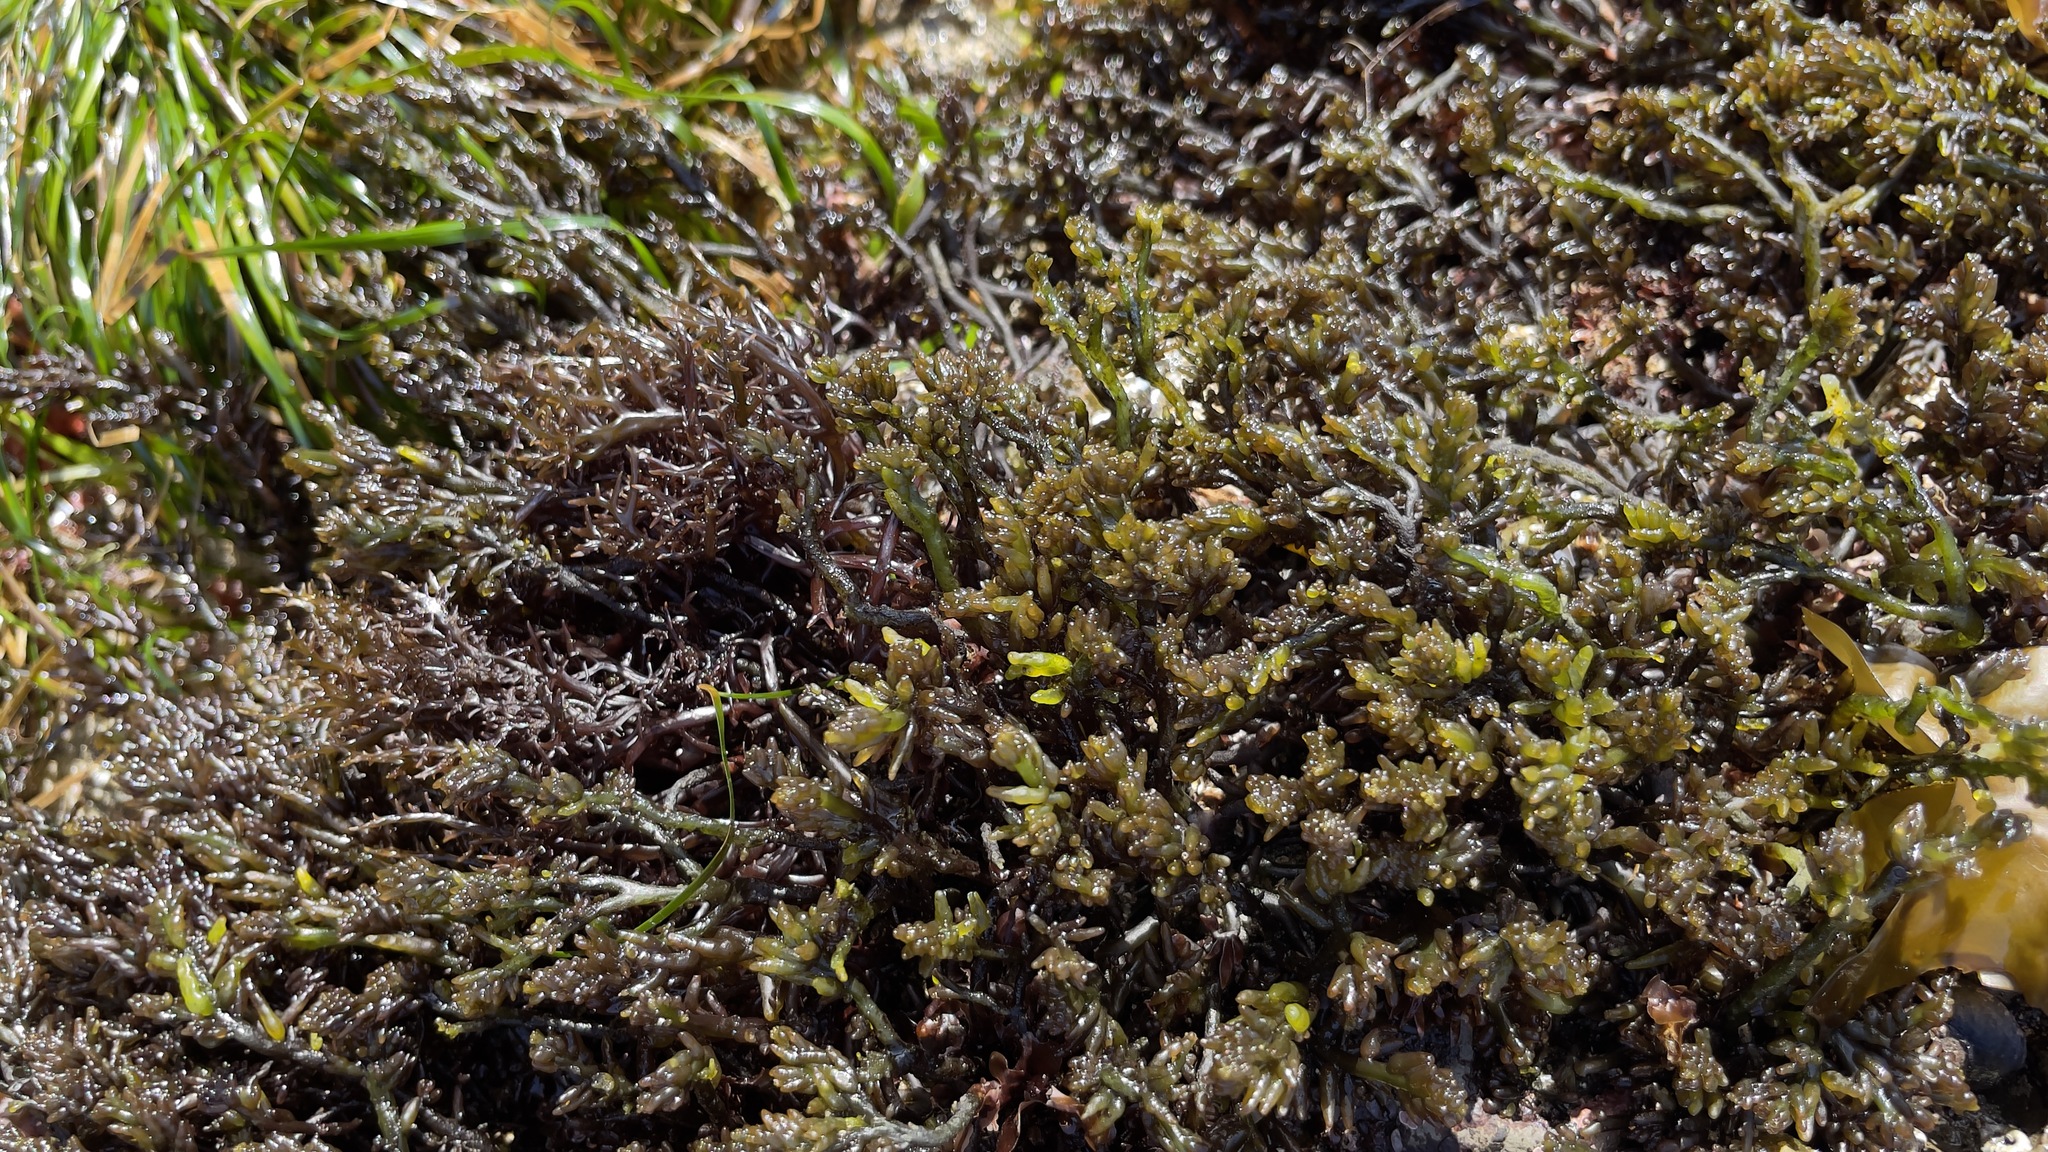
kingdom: Plantae
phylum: Rhodophyta
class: Florideophyceae
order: Rhodymeniales
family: Champiaceae
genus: Neogastroclonium
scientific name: Neogastroclonium subarticulatum
